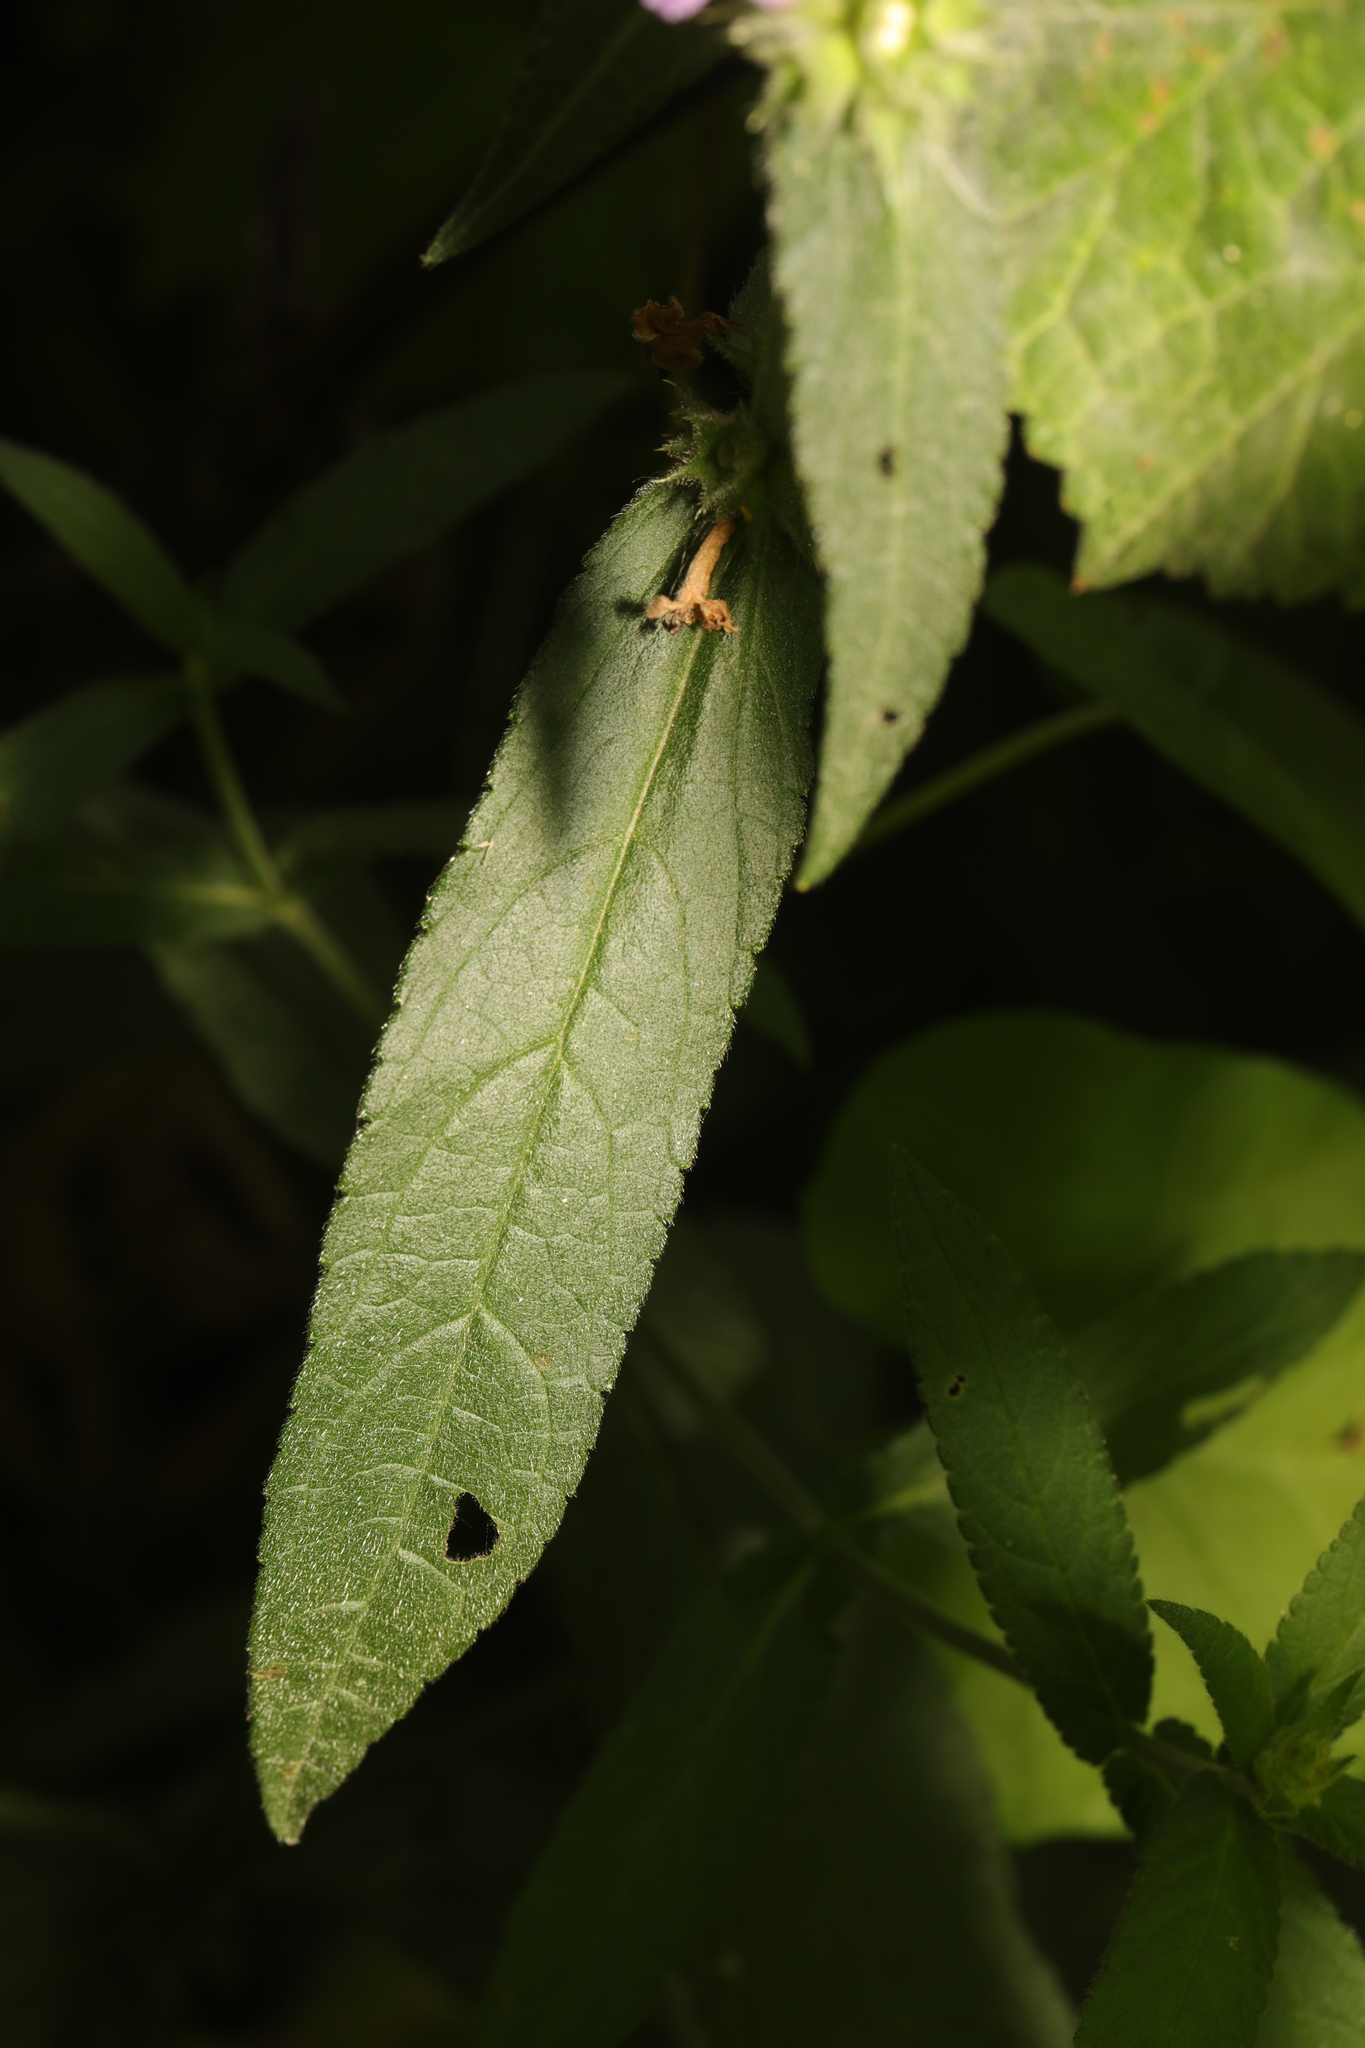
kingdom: Plantae
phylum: Tracheophyta
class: Magnoliopsida
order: Lamiales
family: Lamiaceae
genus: Stachys
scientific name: Stachys palustris
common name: Marsh woundwort
